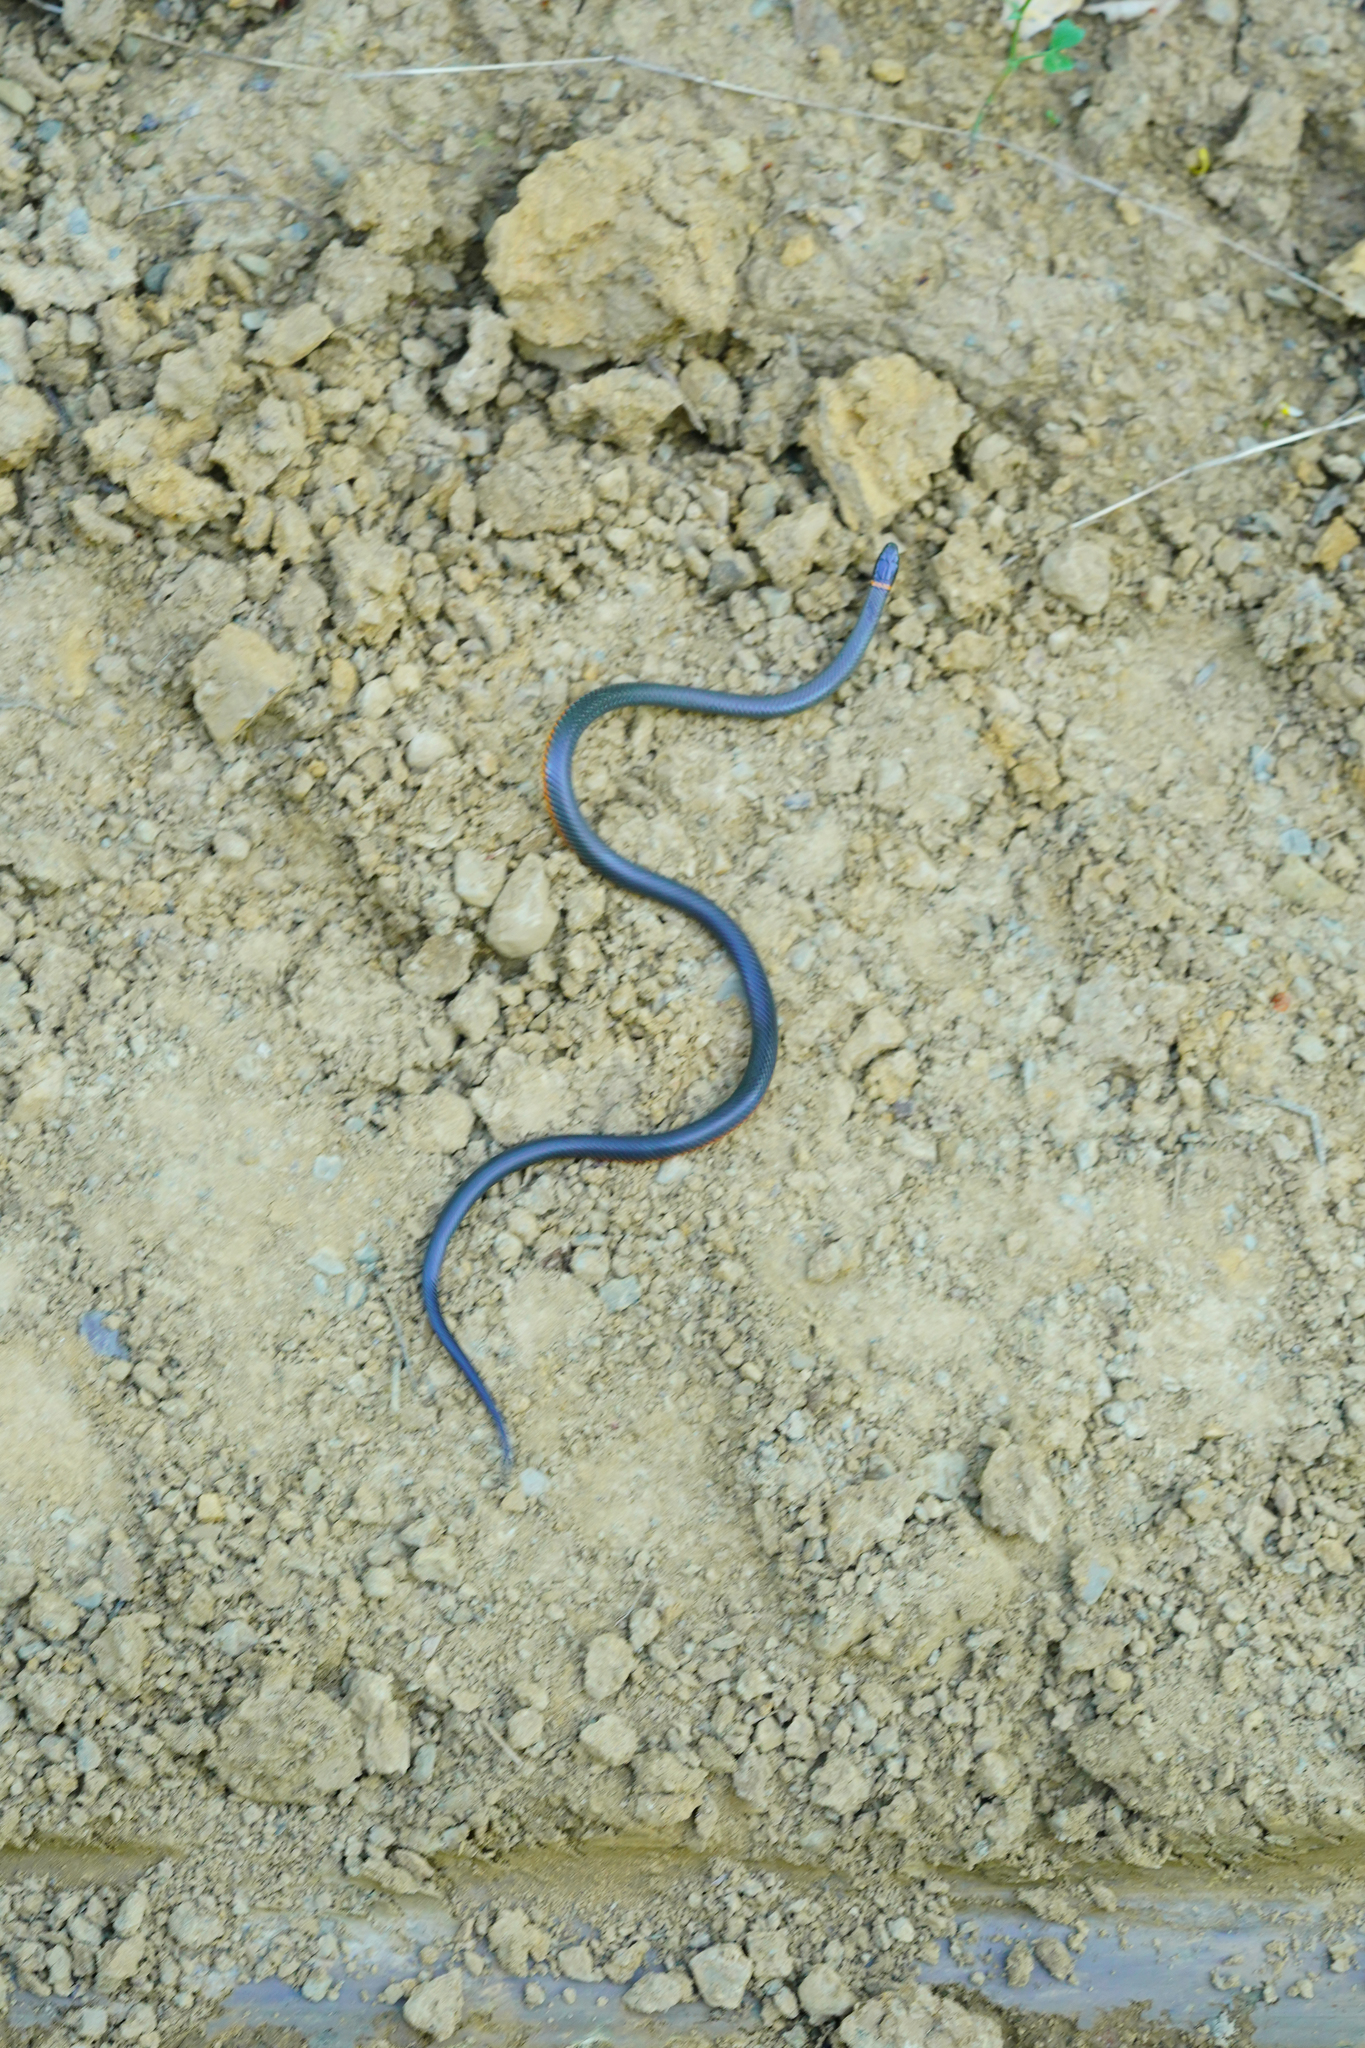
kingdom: Animalia
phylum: Chordata
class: Squamata
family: Colubridae
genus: Diadophis
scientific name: Diadophis punctatus
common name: Ringneck snake
